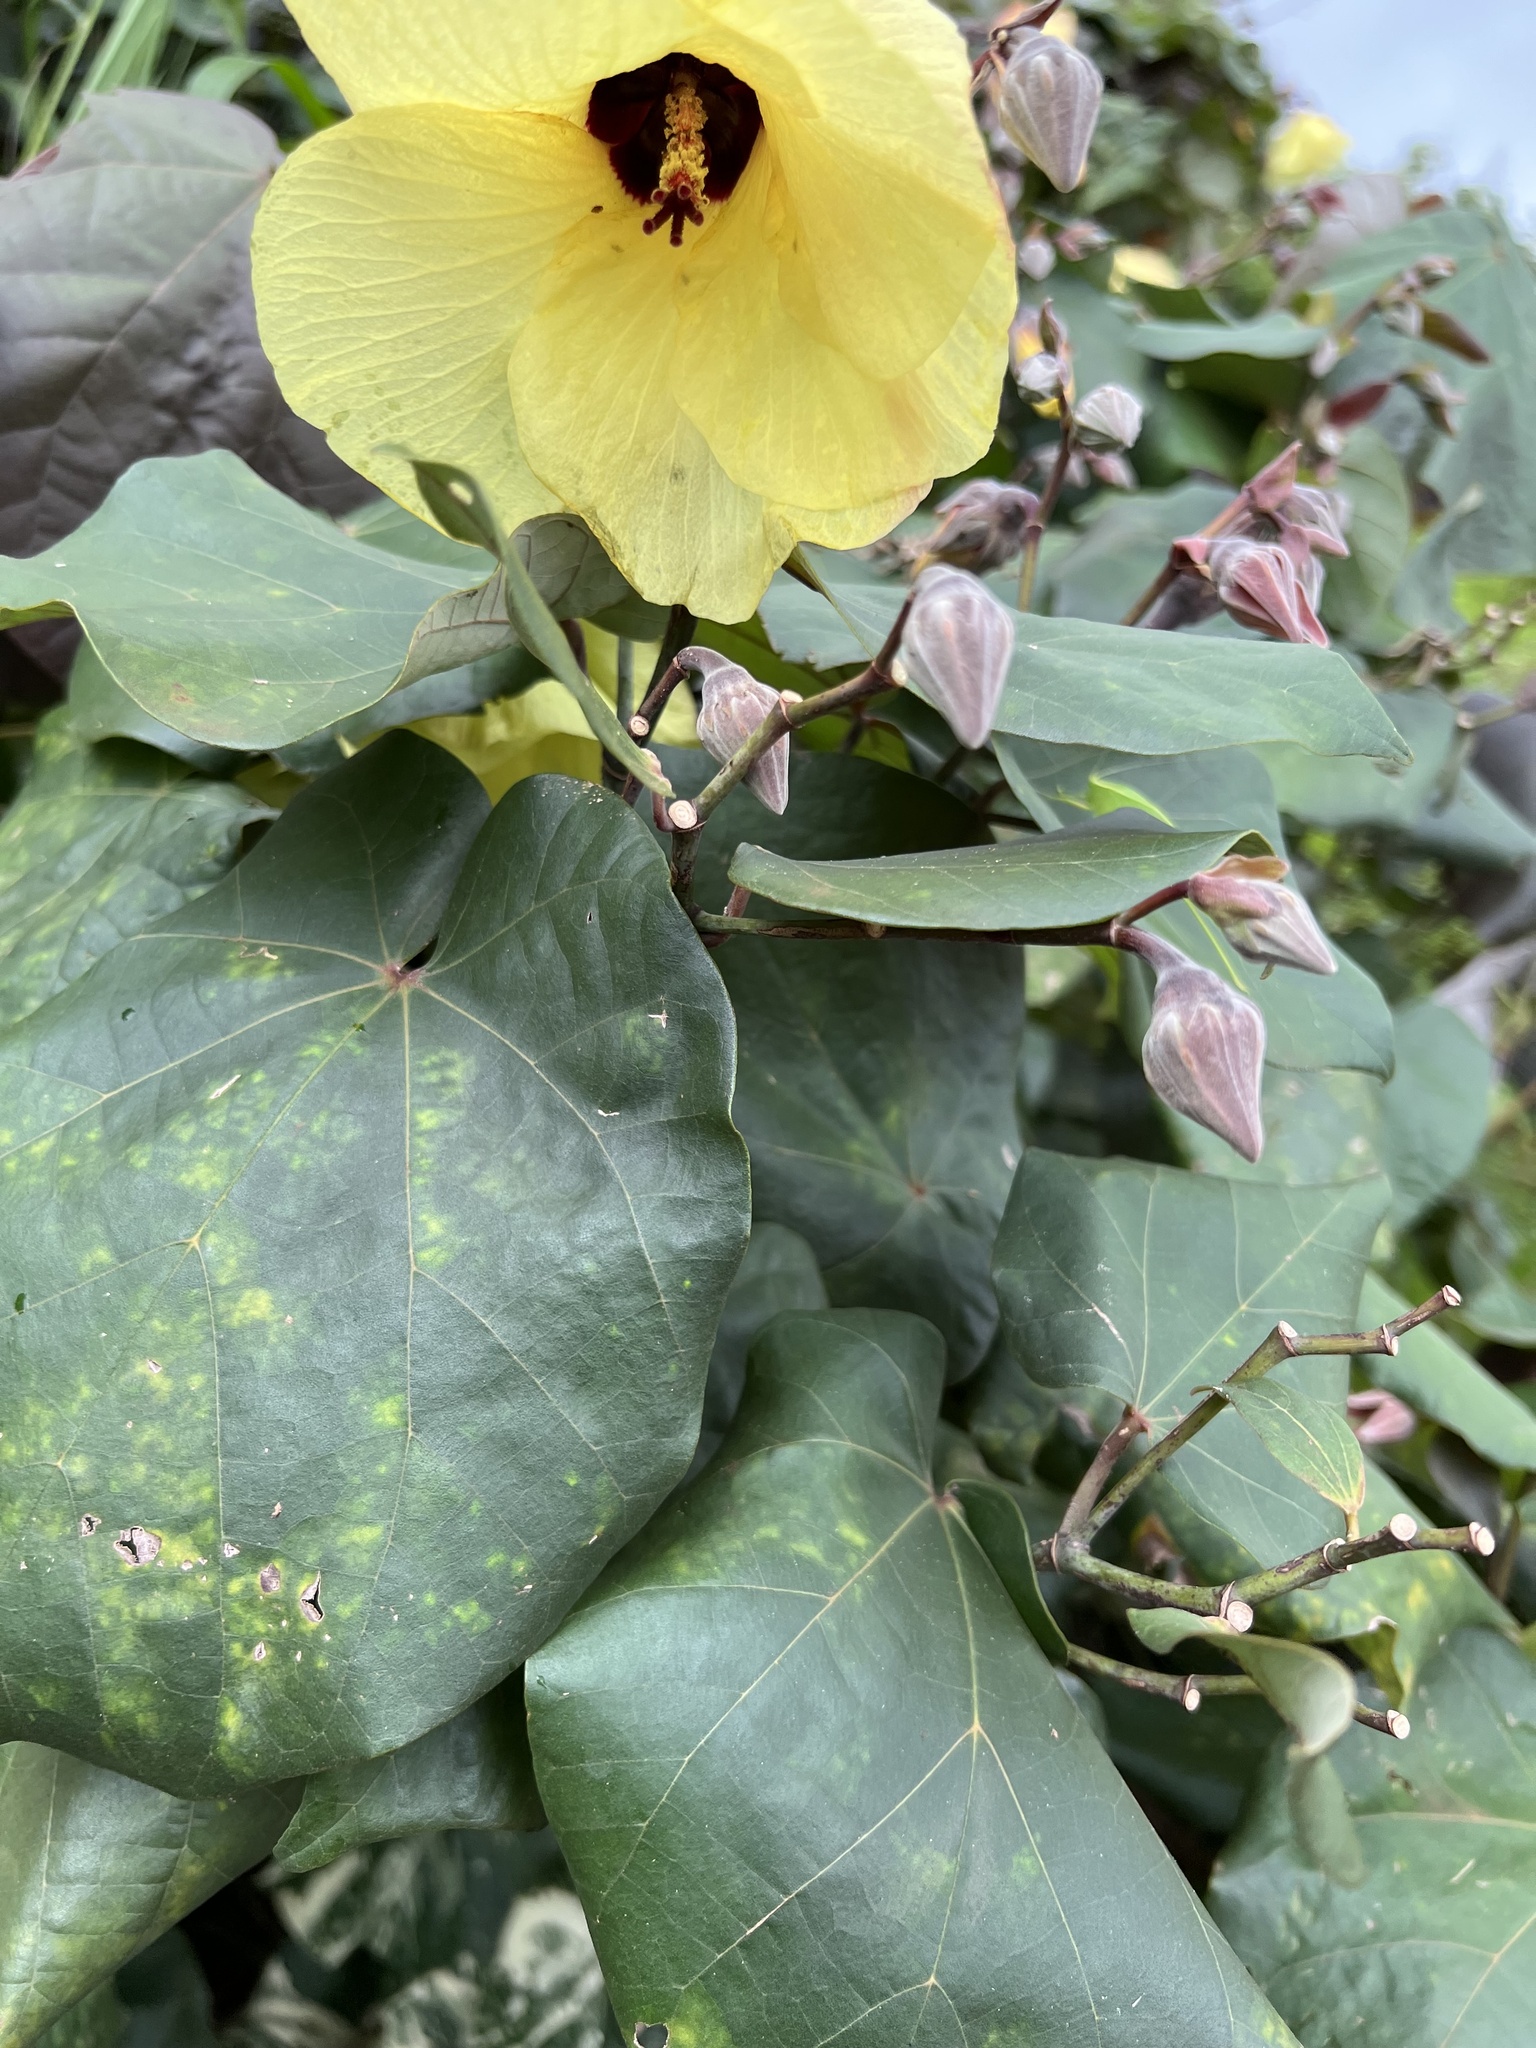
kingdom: Plantae
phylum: Tracheophyta
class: Magnoliopsida
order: Malvales
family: Malvaceae
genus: Talipariti
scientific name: Talipariti tiliaceum
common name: Sea hibiscus
